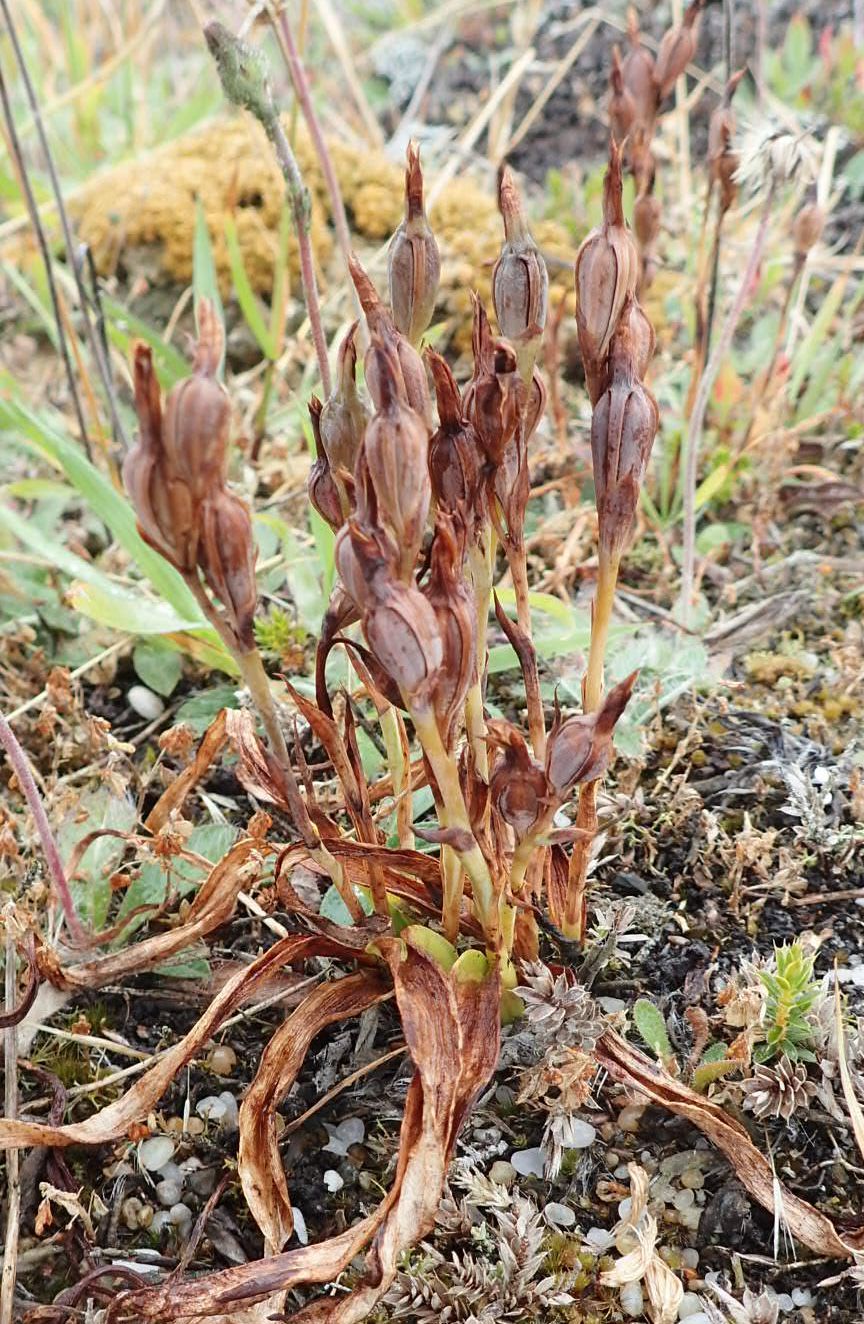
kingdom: Plantae
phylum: Tracheophyta
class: Liliopsida
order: Asparagales
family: Orchidaceae
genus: Thelymitra
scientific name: Thelymitra longifolia
